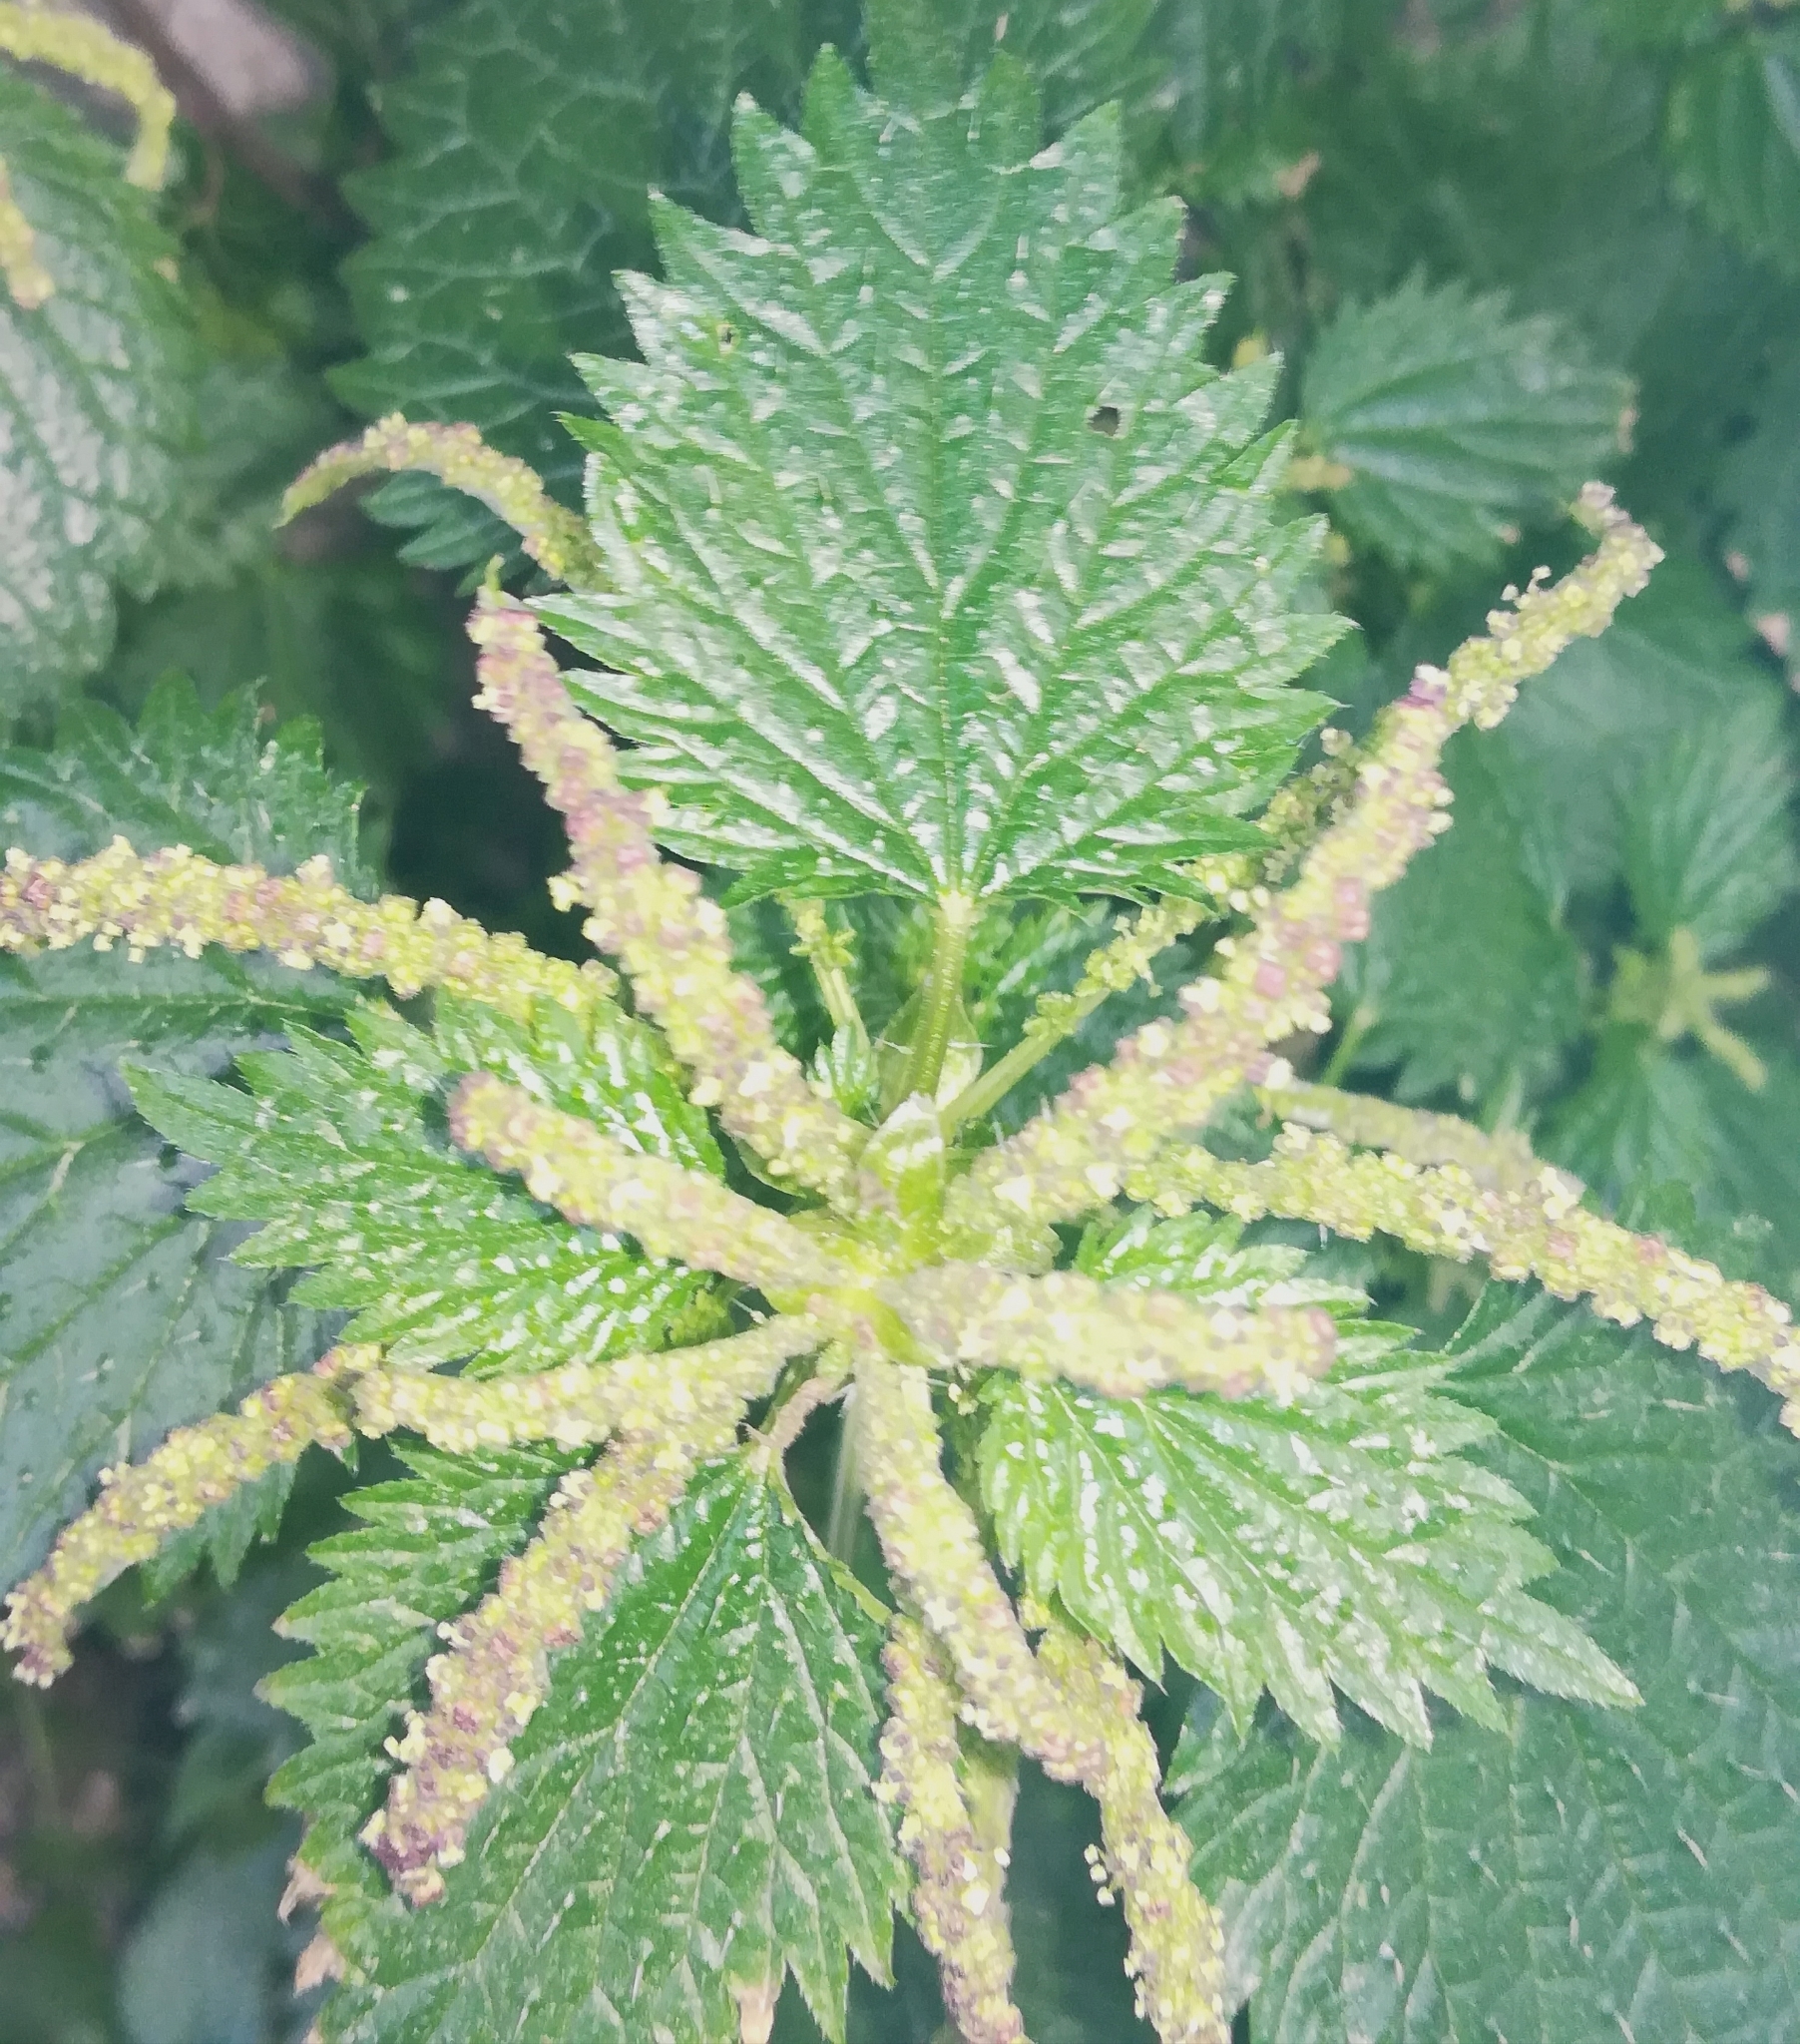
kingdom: Plantae
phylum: Tracheophyta
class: Magnoliopsida
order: Rosales
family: Urticaceae
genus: Urtica
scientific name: Urtica membranacea
